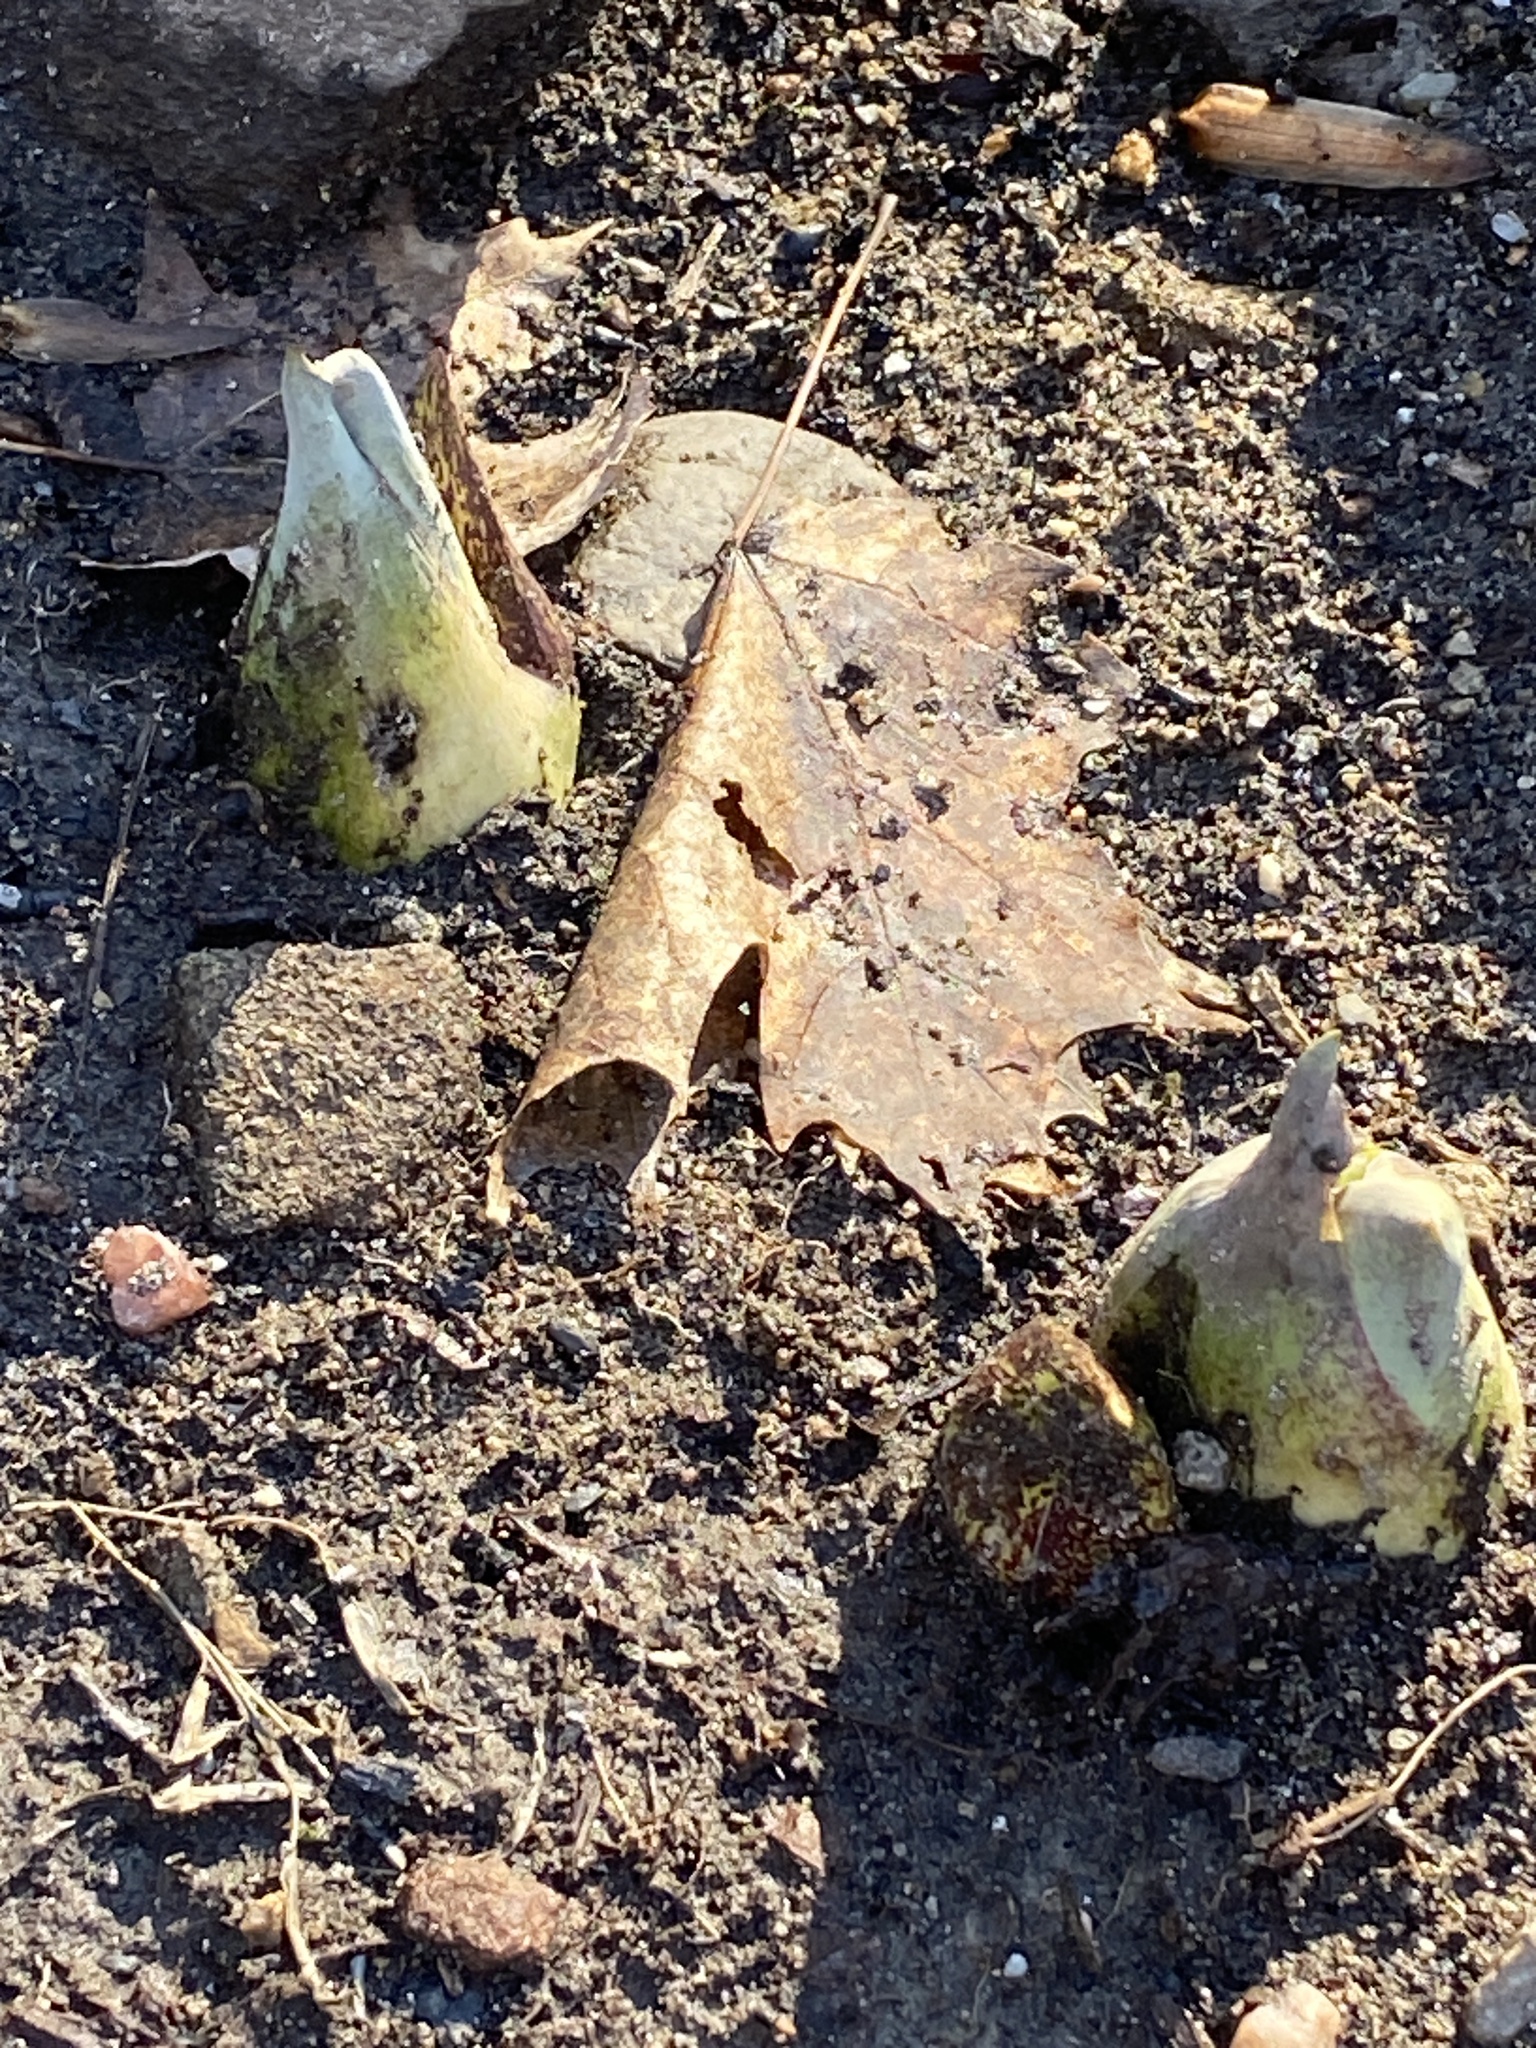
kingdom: Plantae
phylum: Tracheophyta
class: Liliopsida
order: Alismatales
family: Araceae
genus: Symplocarpus
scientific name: Symplocarpus foetidus
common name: Eastern skunk cabbage
